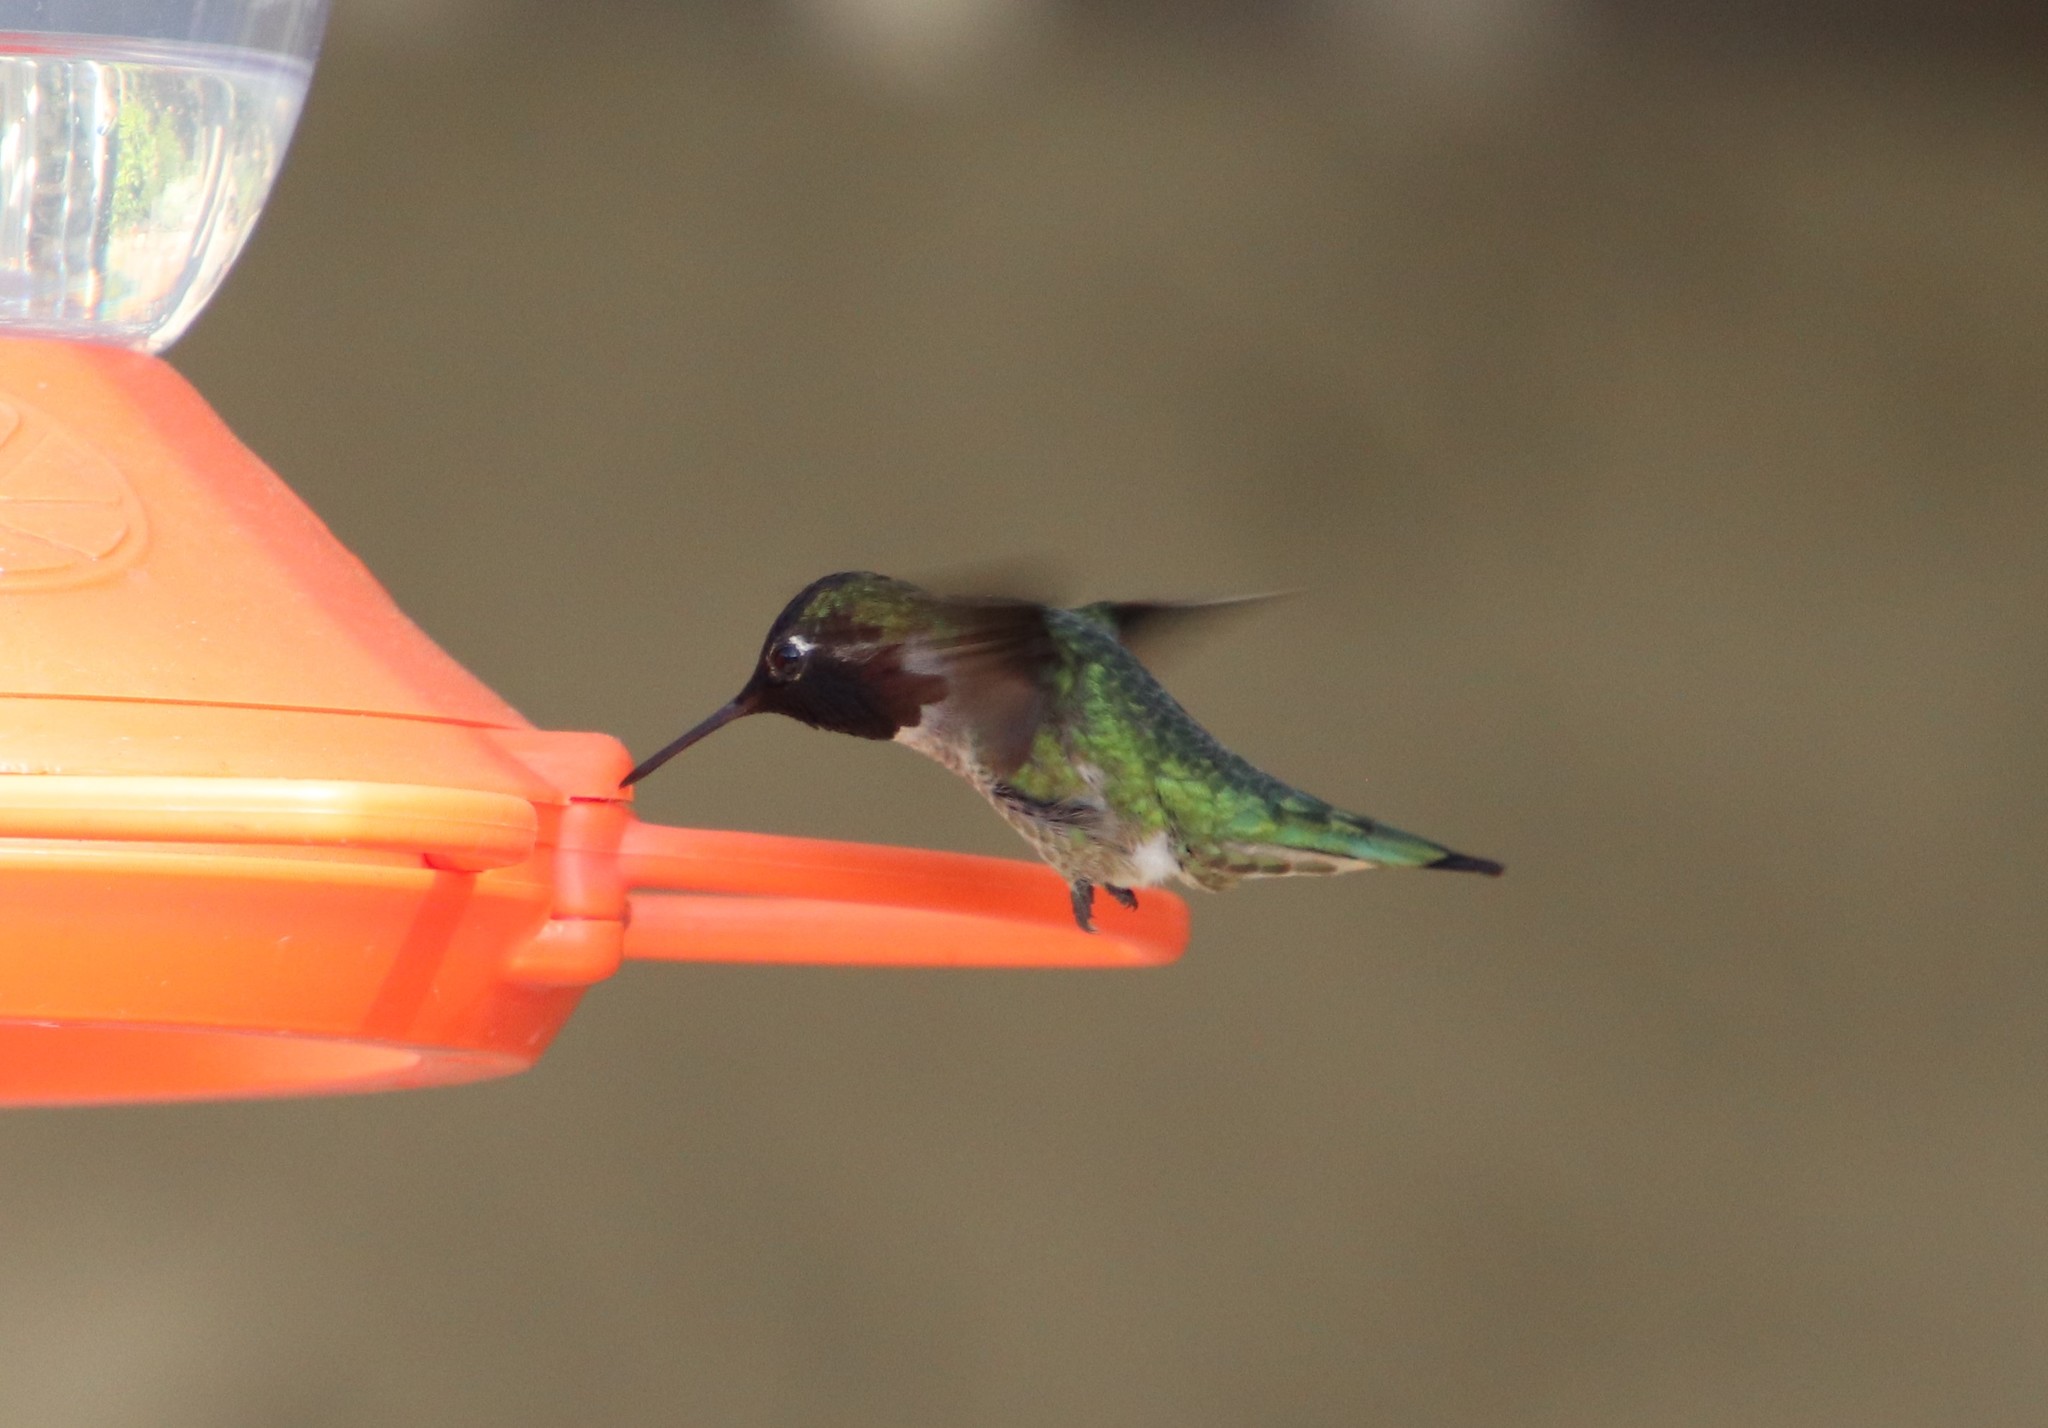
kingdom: Animalia
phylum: Chordata
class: Aves
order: Apodiformes
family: Trochilidae
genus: Calypte
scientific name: Calypte anna
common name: Anna's hummingbird
